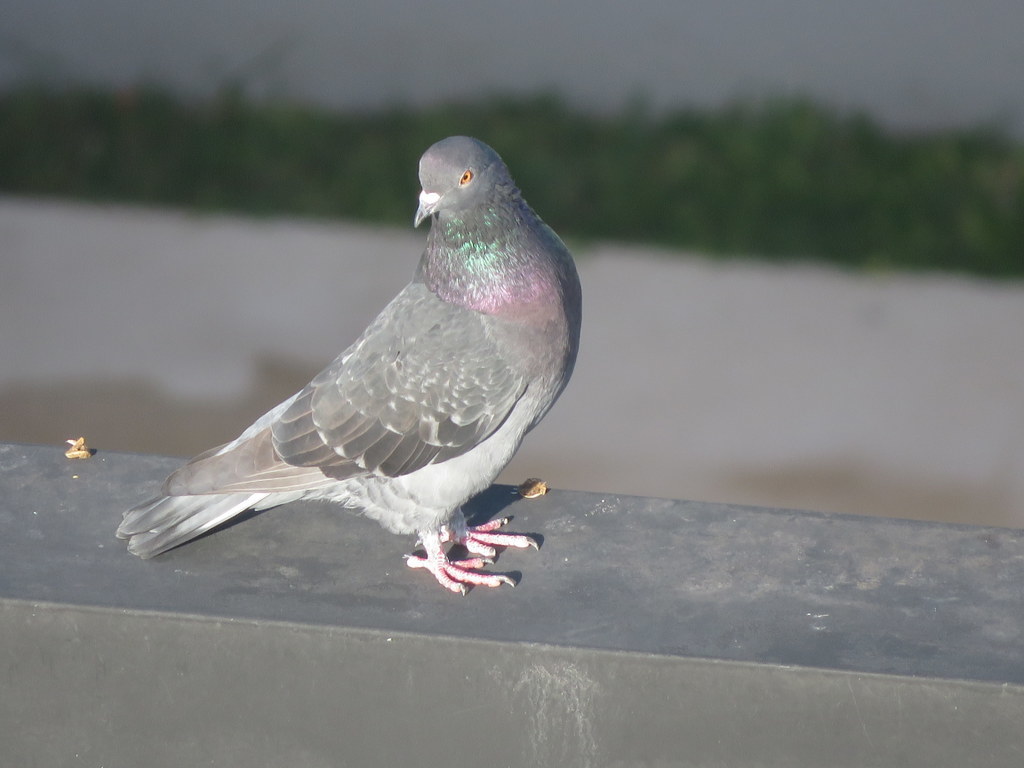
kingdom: Animalia
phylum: Chordata
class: Aves
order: Columbiformes
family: Columbidae
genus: Columba
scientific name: Columba livia
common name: Rock pigeon
